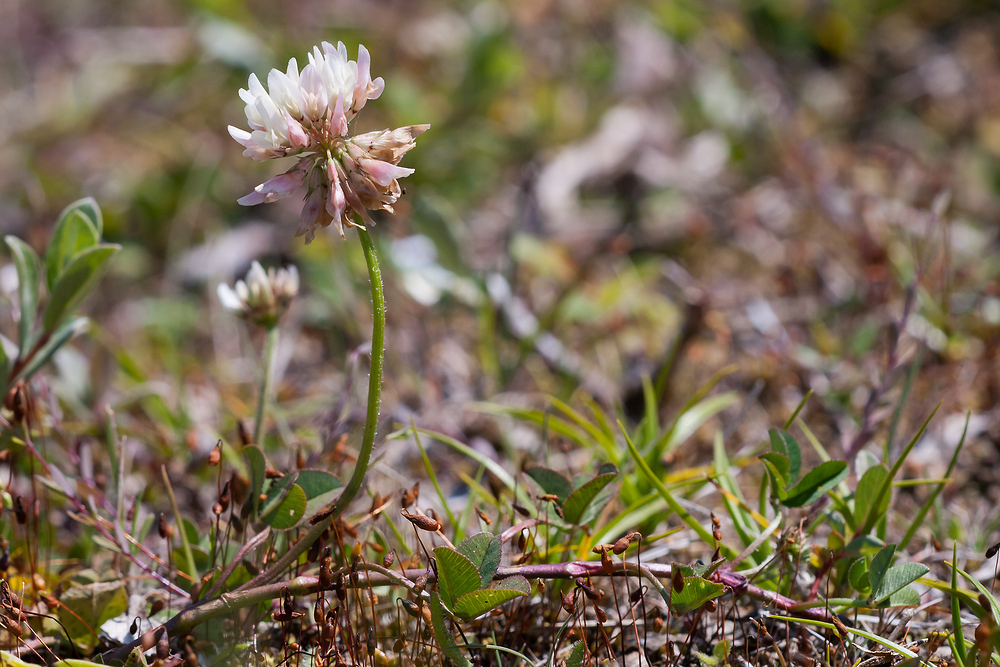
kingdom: Plantae
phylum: Tracheophyta
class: Magnoliopsida
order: Fabales
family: Fabaceae
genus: Trifolium
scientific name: Trifolium repens
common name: White clover
